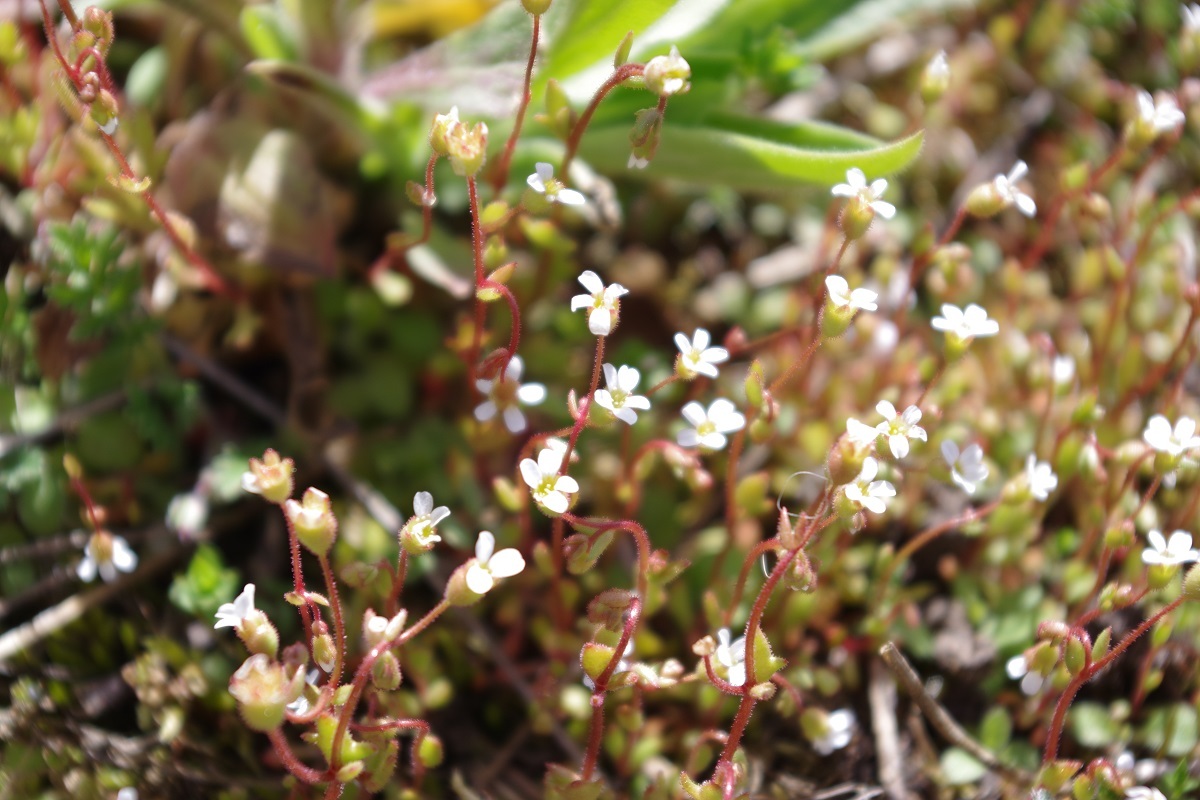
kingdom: Plantae
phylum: Tracheophyta
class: Magnoliopsida
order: Saxifragales
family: Saxifragaceae
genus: Saxifraga
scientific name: Saxifraga tridactylites
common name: Rue-leaved saxifrage
